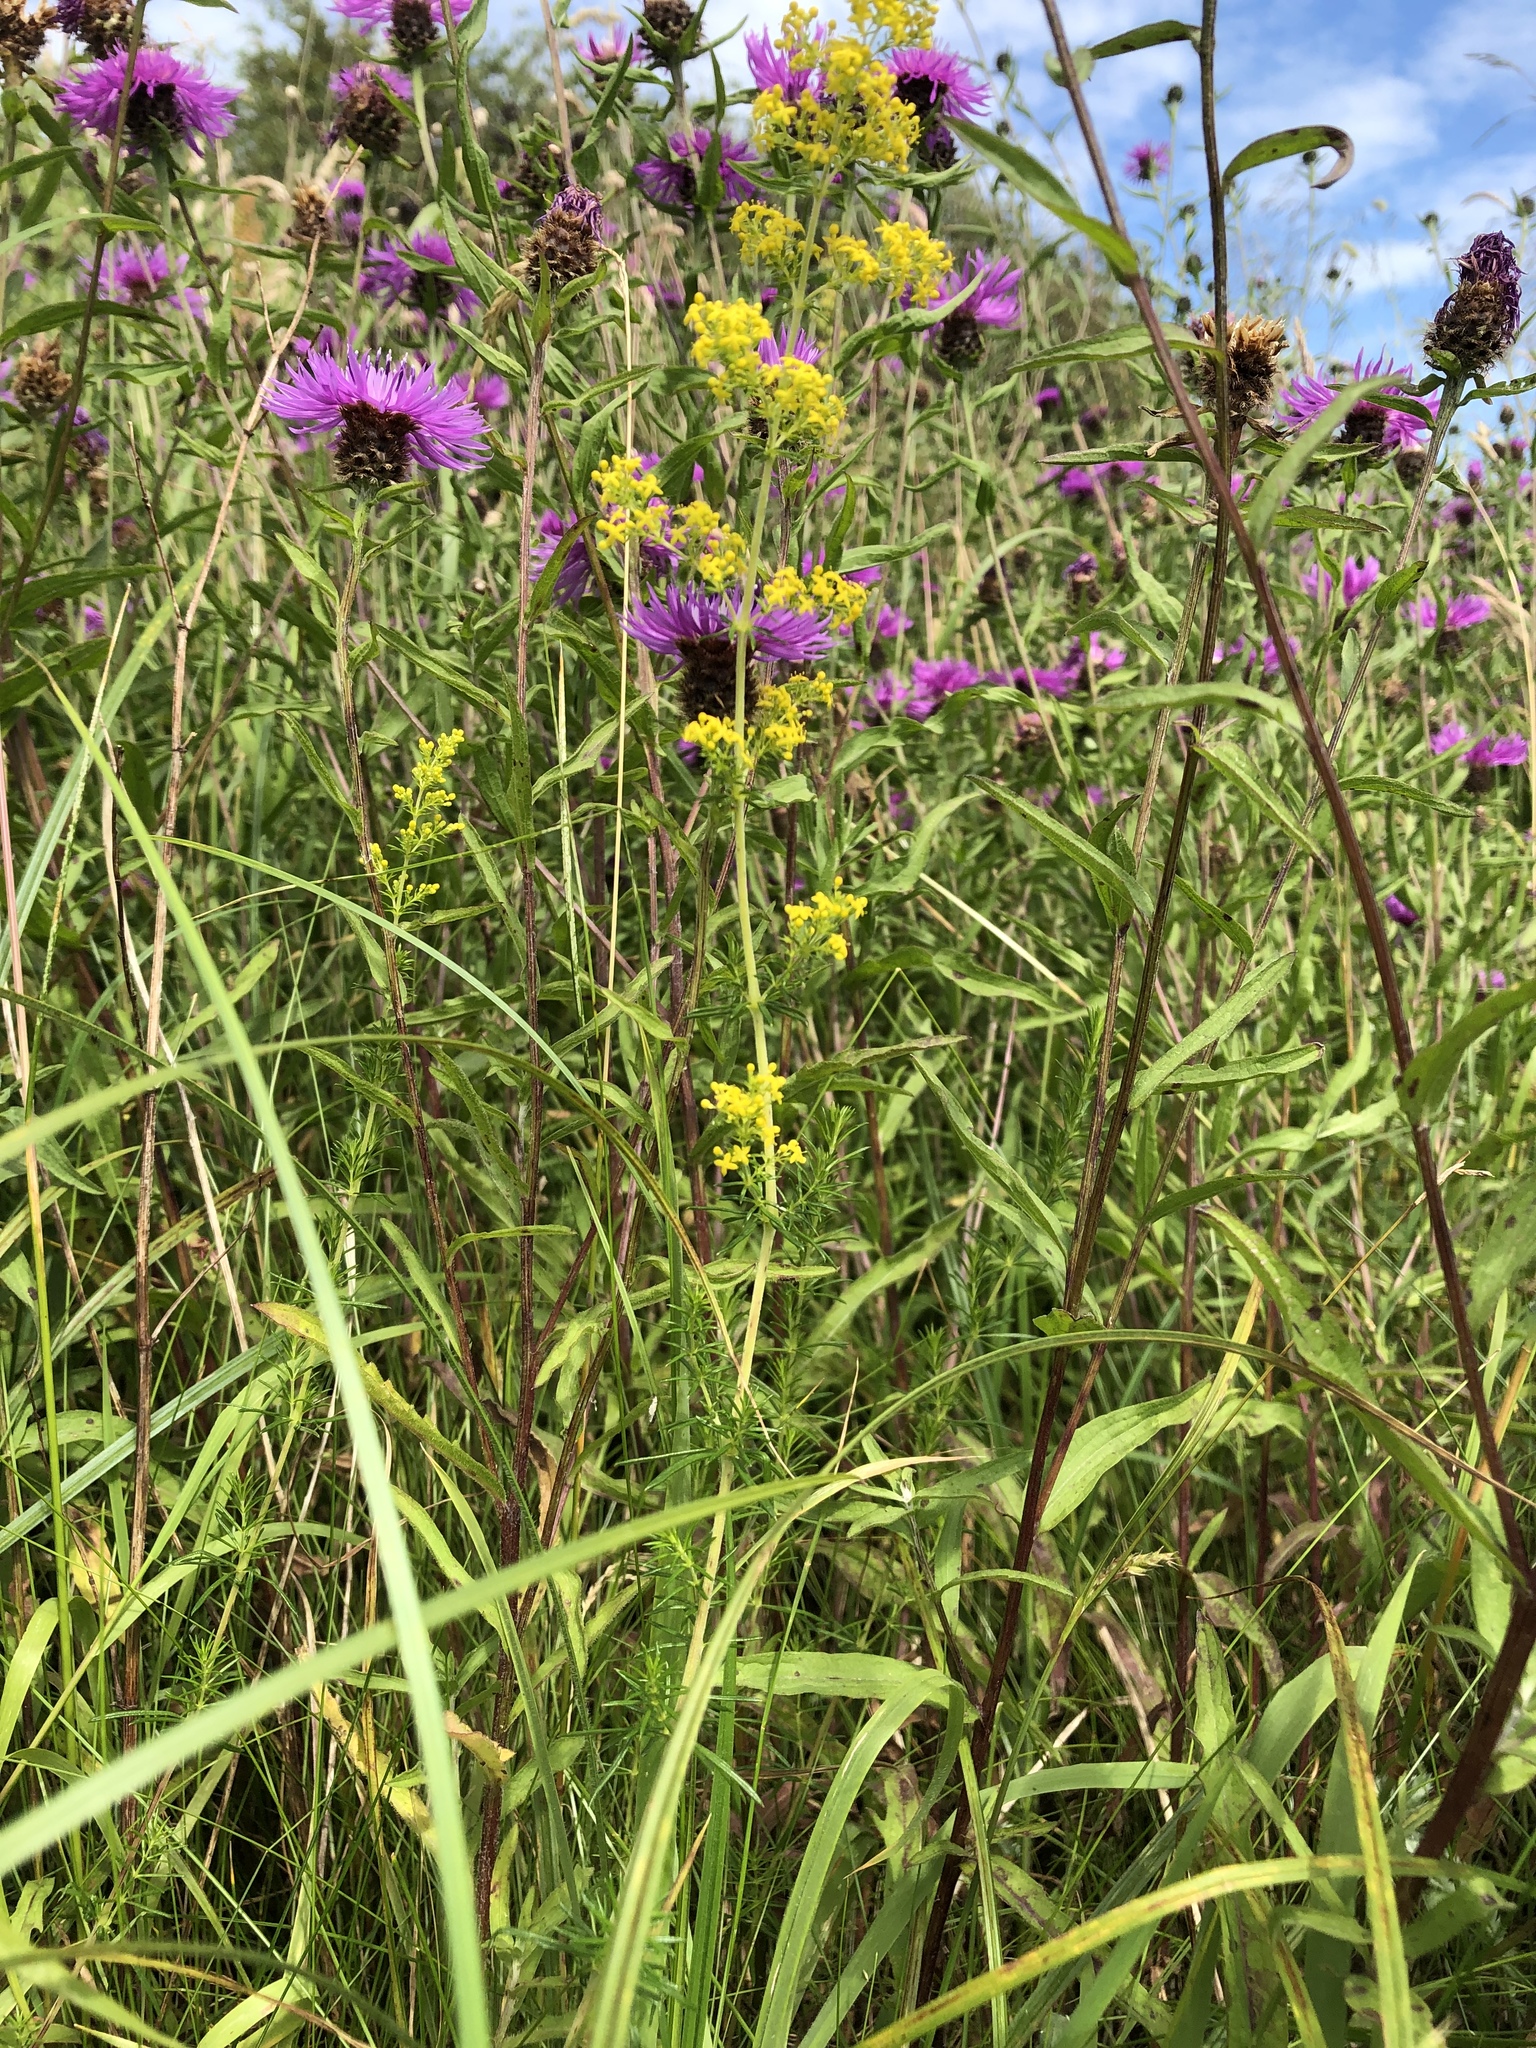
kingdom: Plantae
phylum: Tracheophyta
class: Magnoliopsida
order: Gentianales
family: Rubiaceae
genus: Galium
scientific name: Galium verum
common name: Lady's bedstraw
